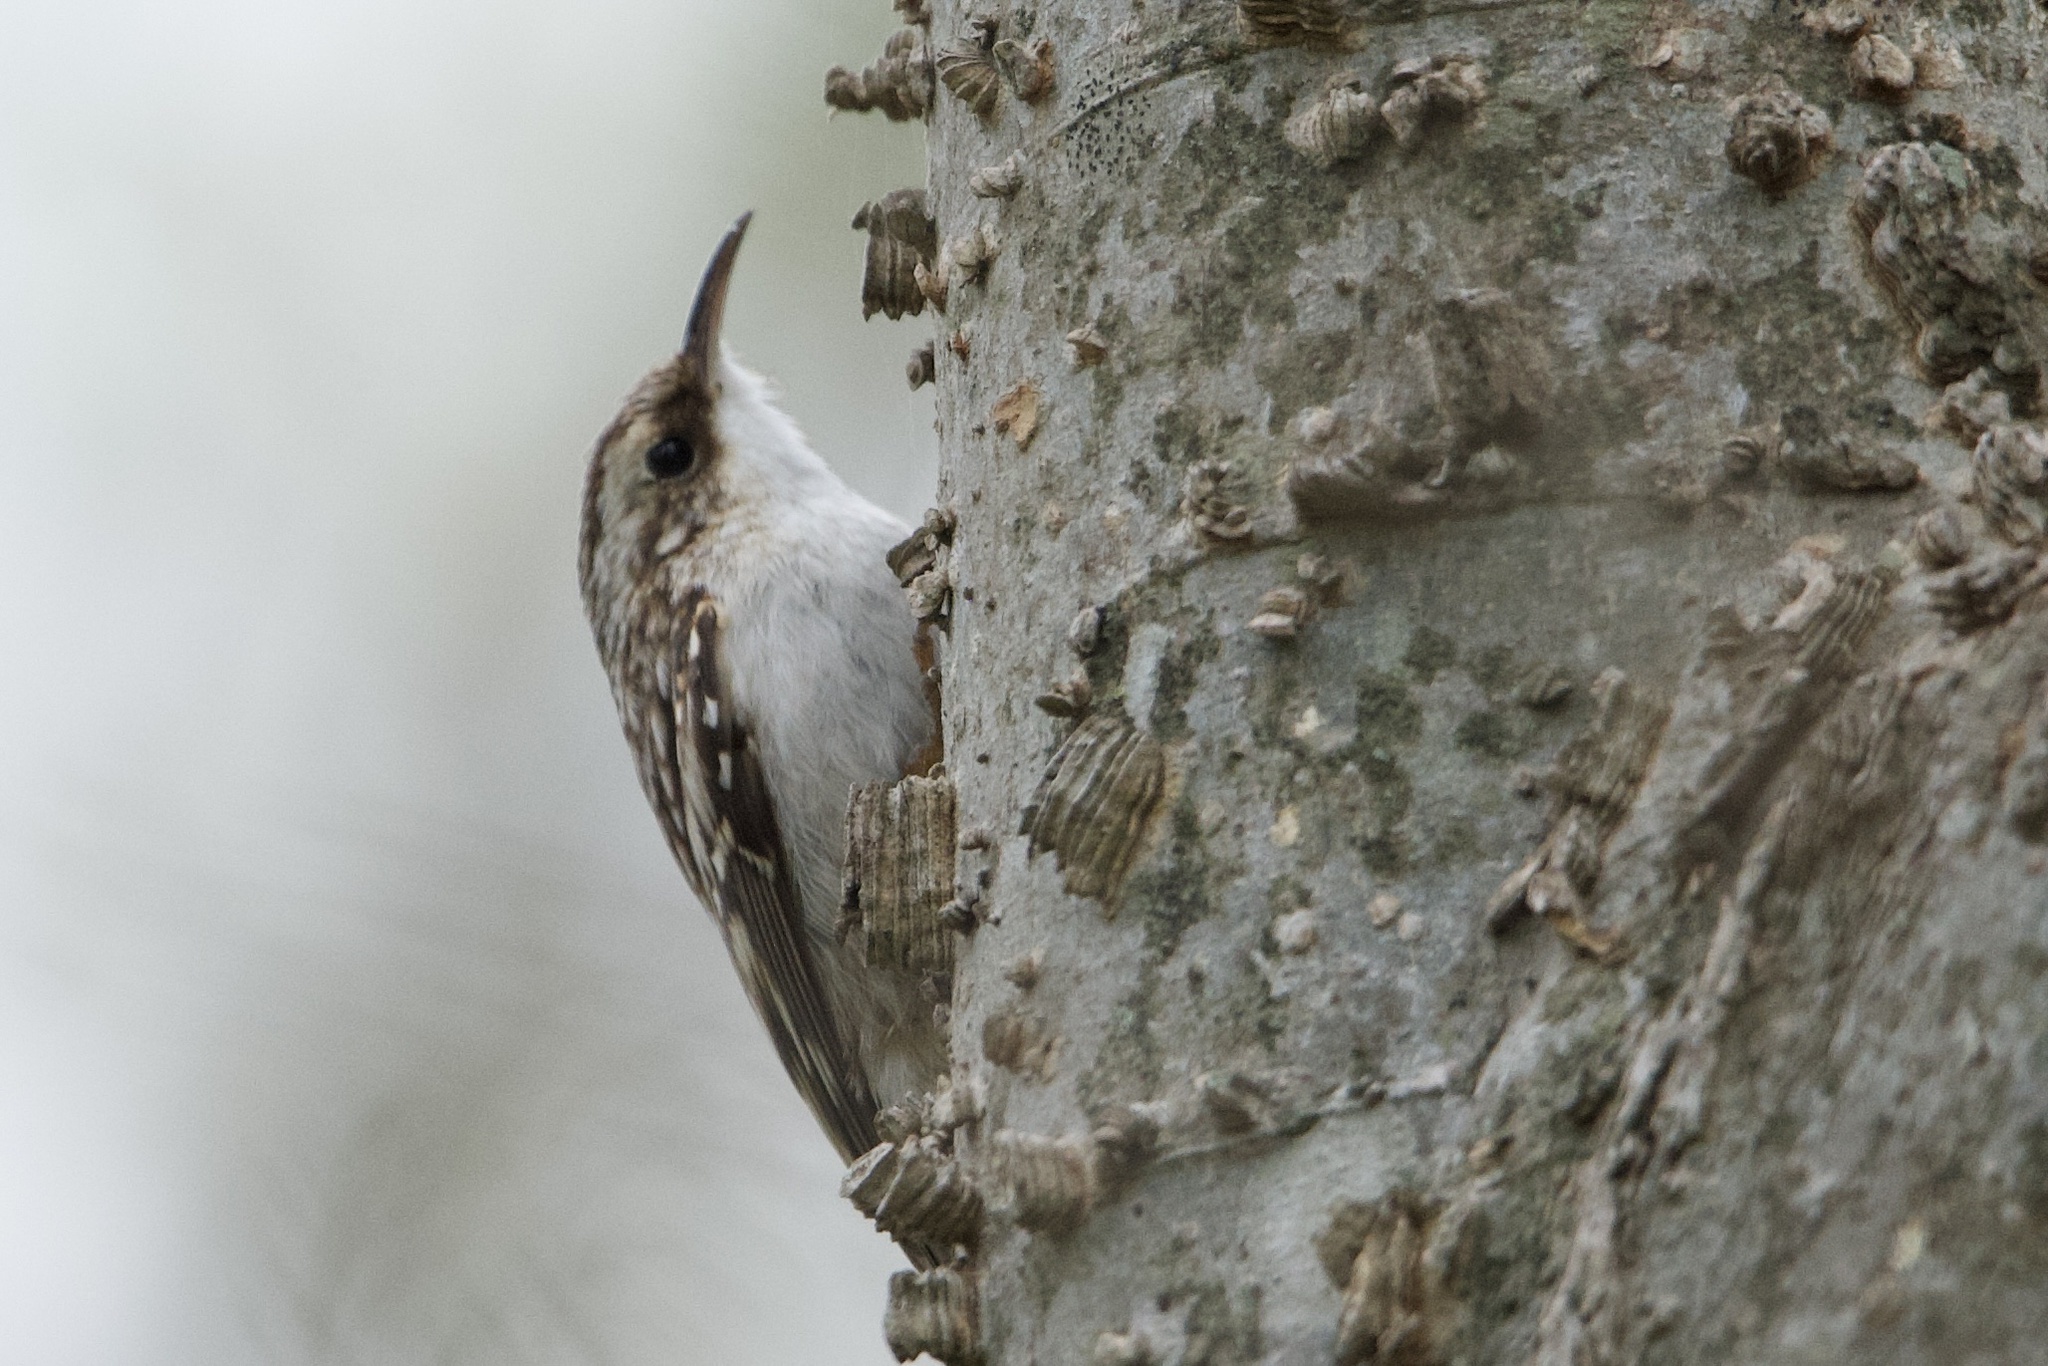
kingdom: Animalia
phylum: Chordata
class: Aves
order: Passeriformes
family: Certhiidae
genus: Certhia
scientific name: Certhia americana
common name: Brown creeper
